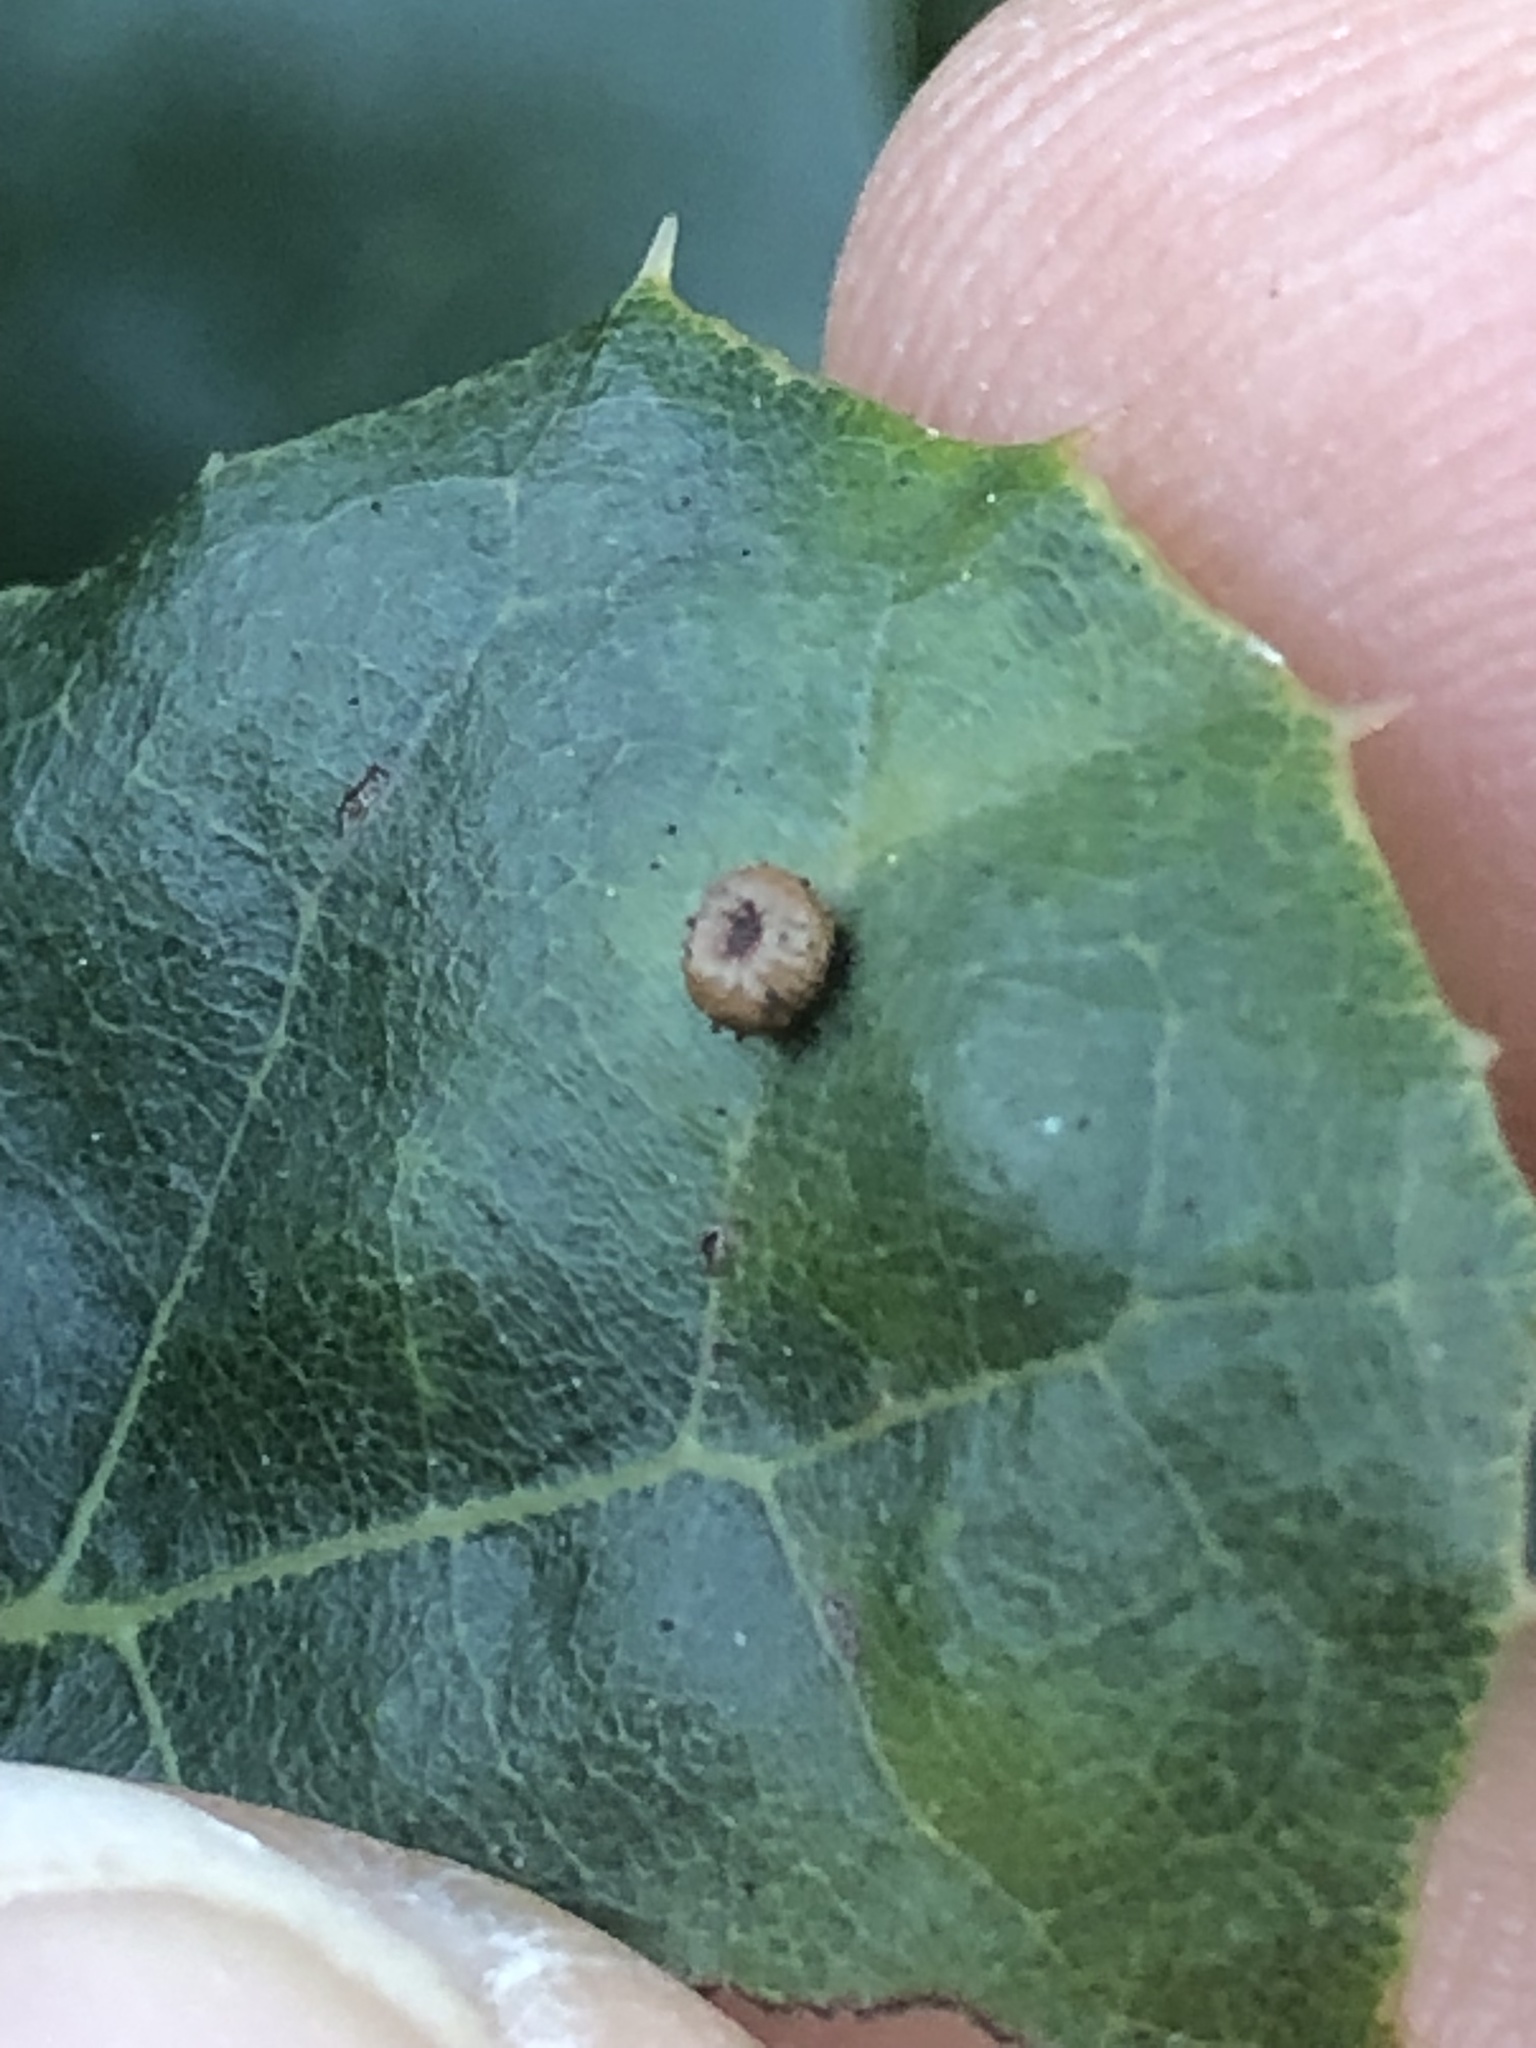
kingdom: Animalia
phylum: Arthropoda
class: Insecta
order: Hymenoptera
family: Cynipidae
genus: Dryocosmus
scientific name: Dryocosmus
